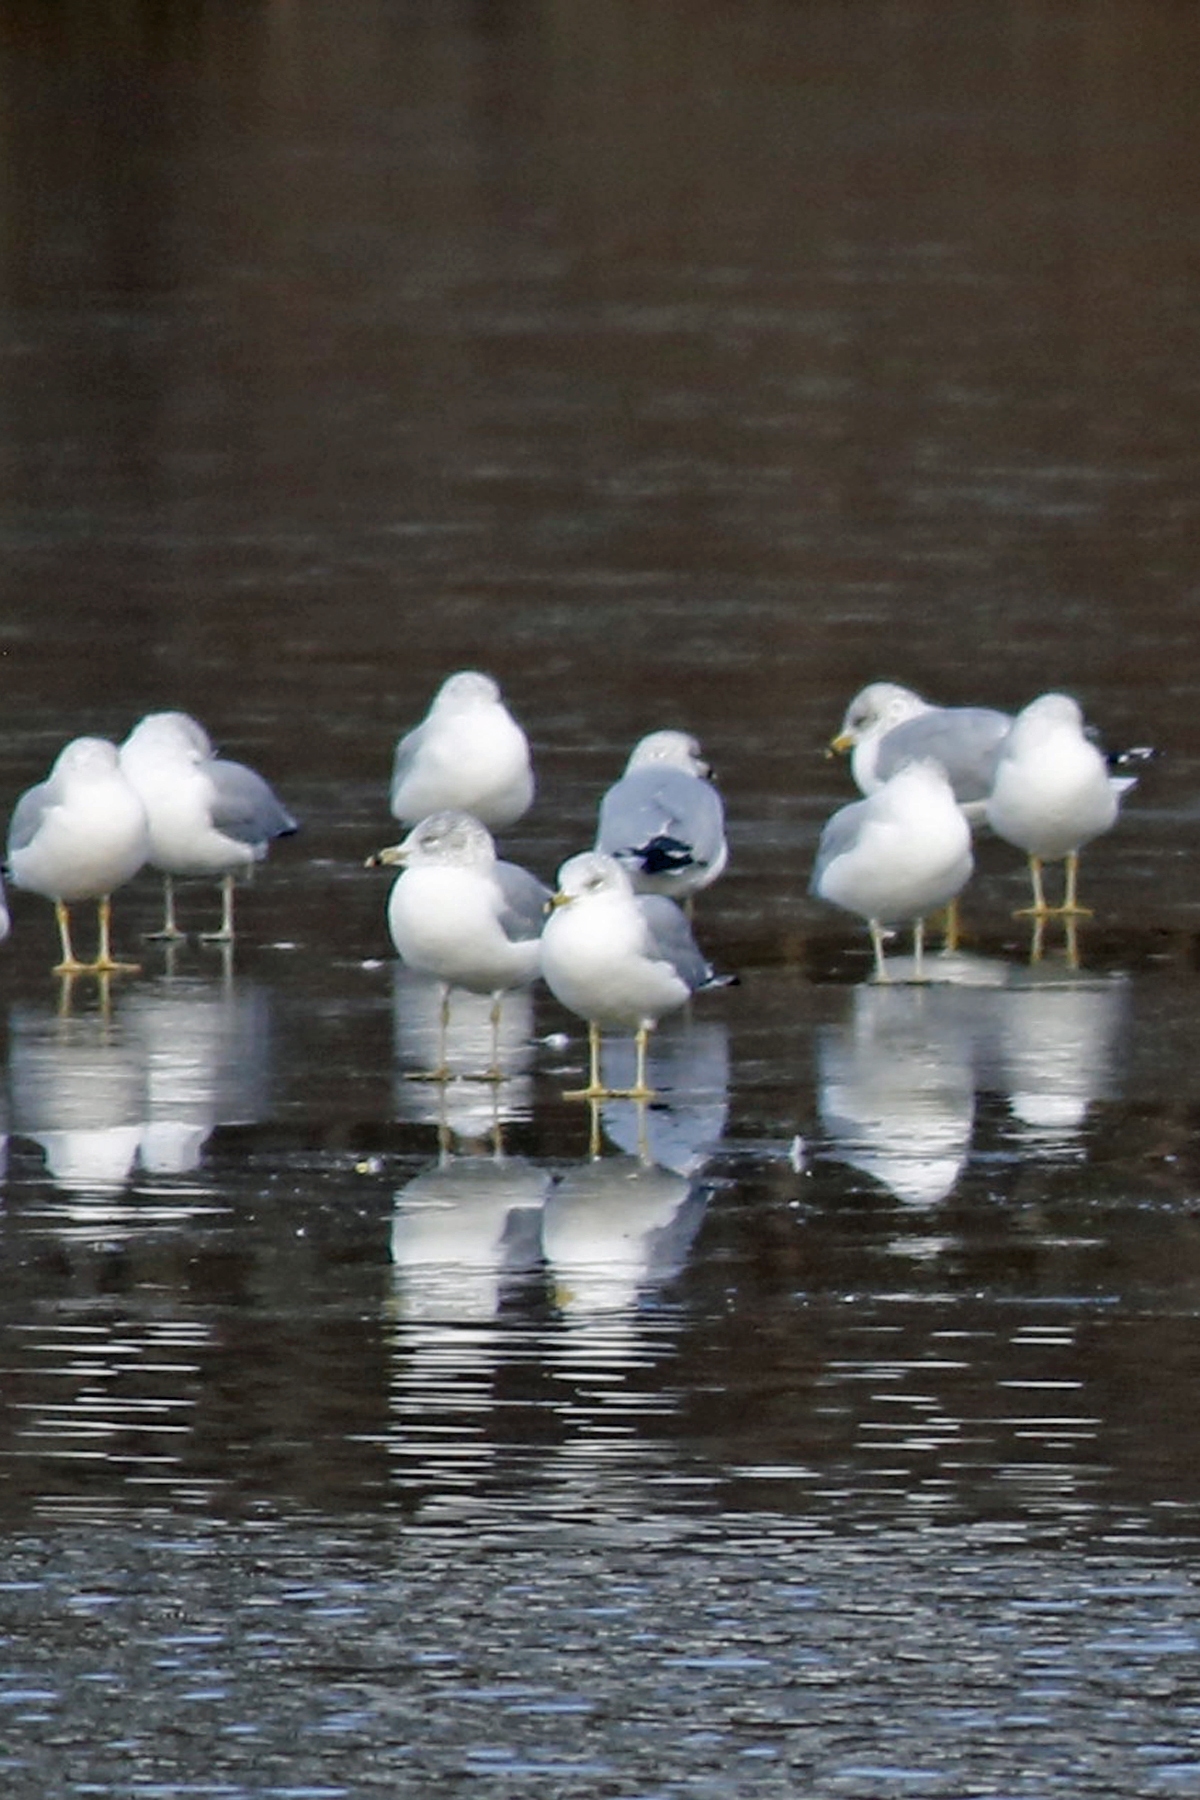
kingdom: Animalia
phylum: Chordata
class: Aves
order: Charadriiformes
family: Laridae
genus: Larus
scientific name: Larus delawarensis
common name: Ring-billed gull
